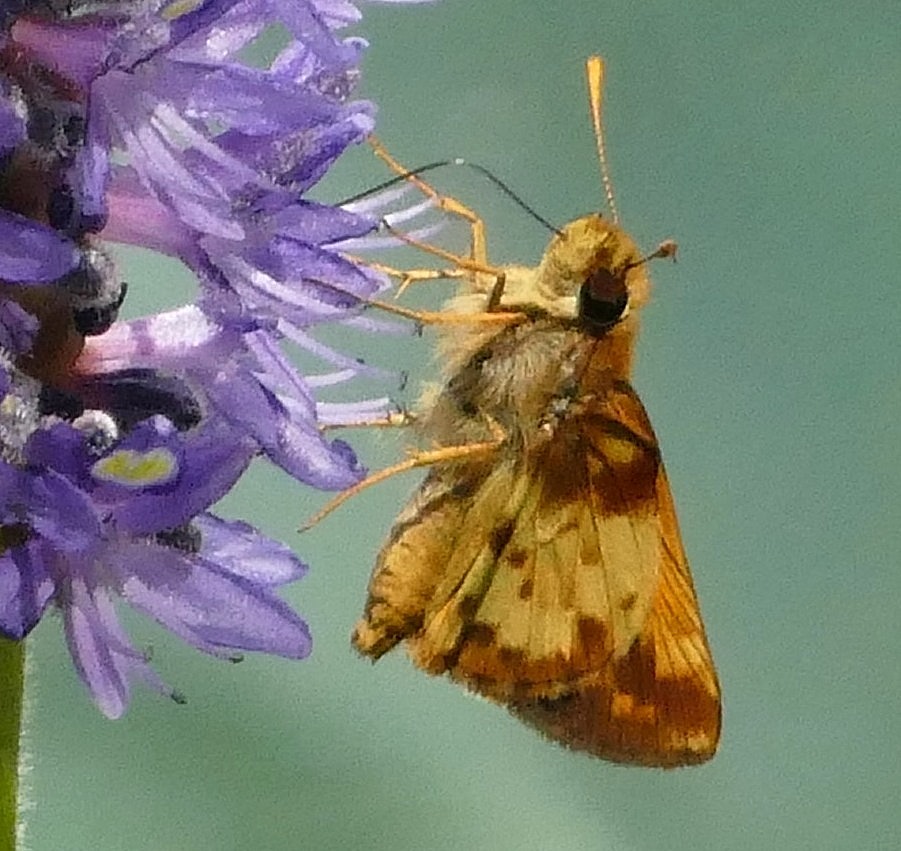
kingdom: Animalia
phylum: Arthropoda
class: Insecta
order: Lepidoptera
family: Hesperiidae
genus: Lon
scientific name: Lon zabulon
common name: Zabulon skipper
